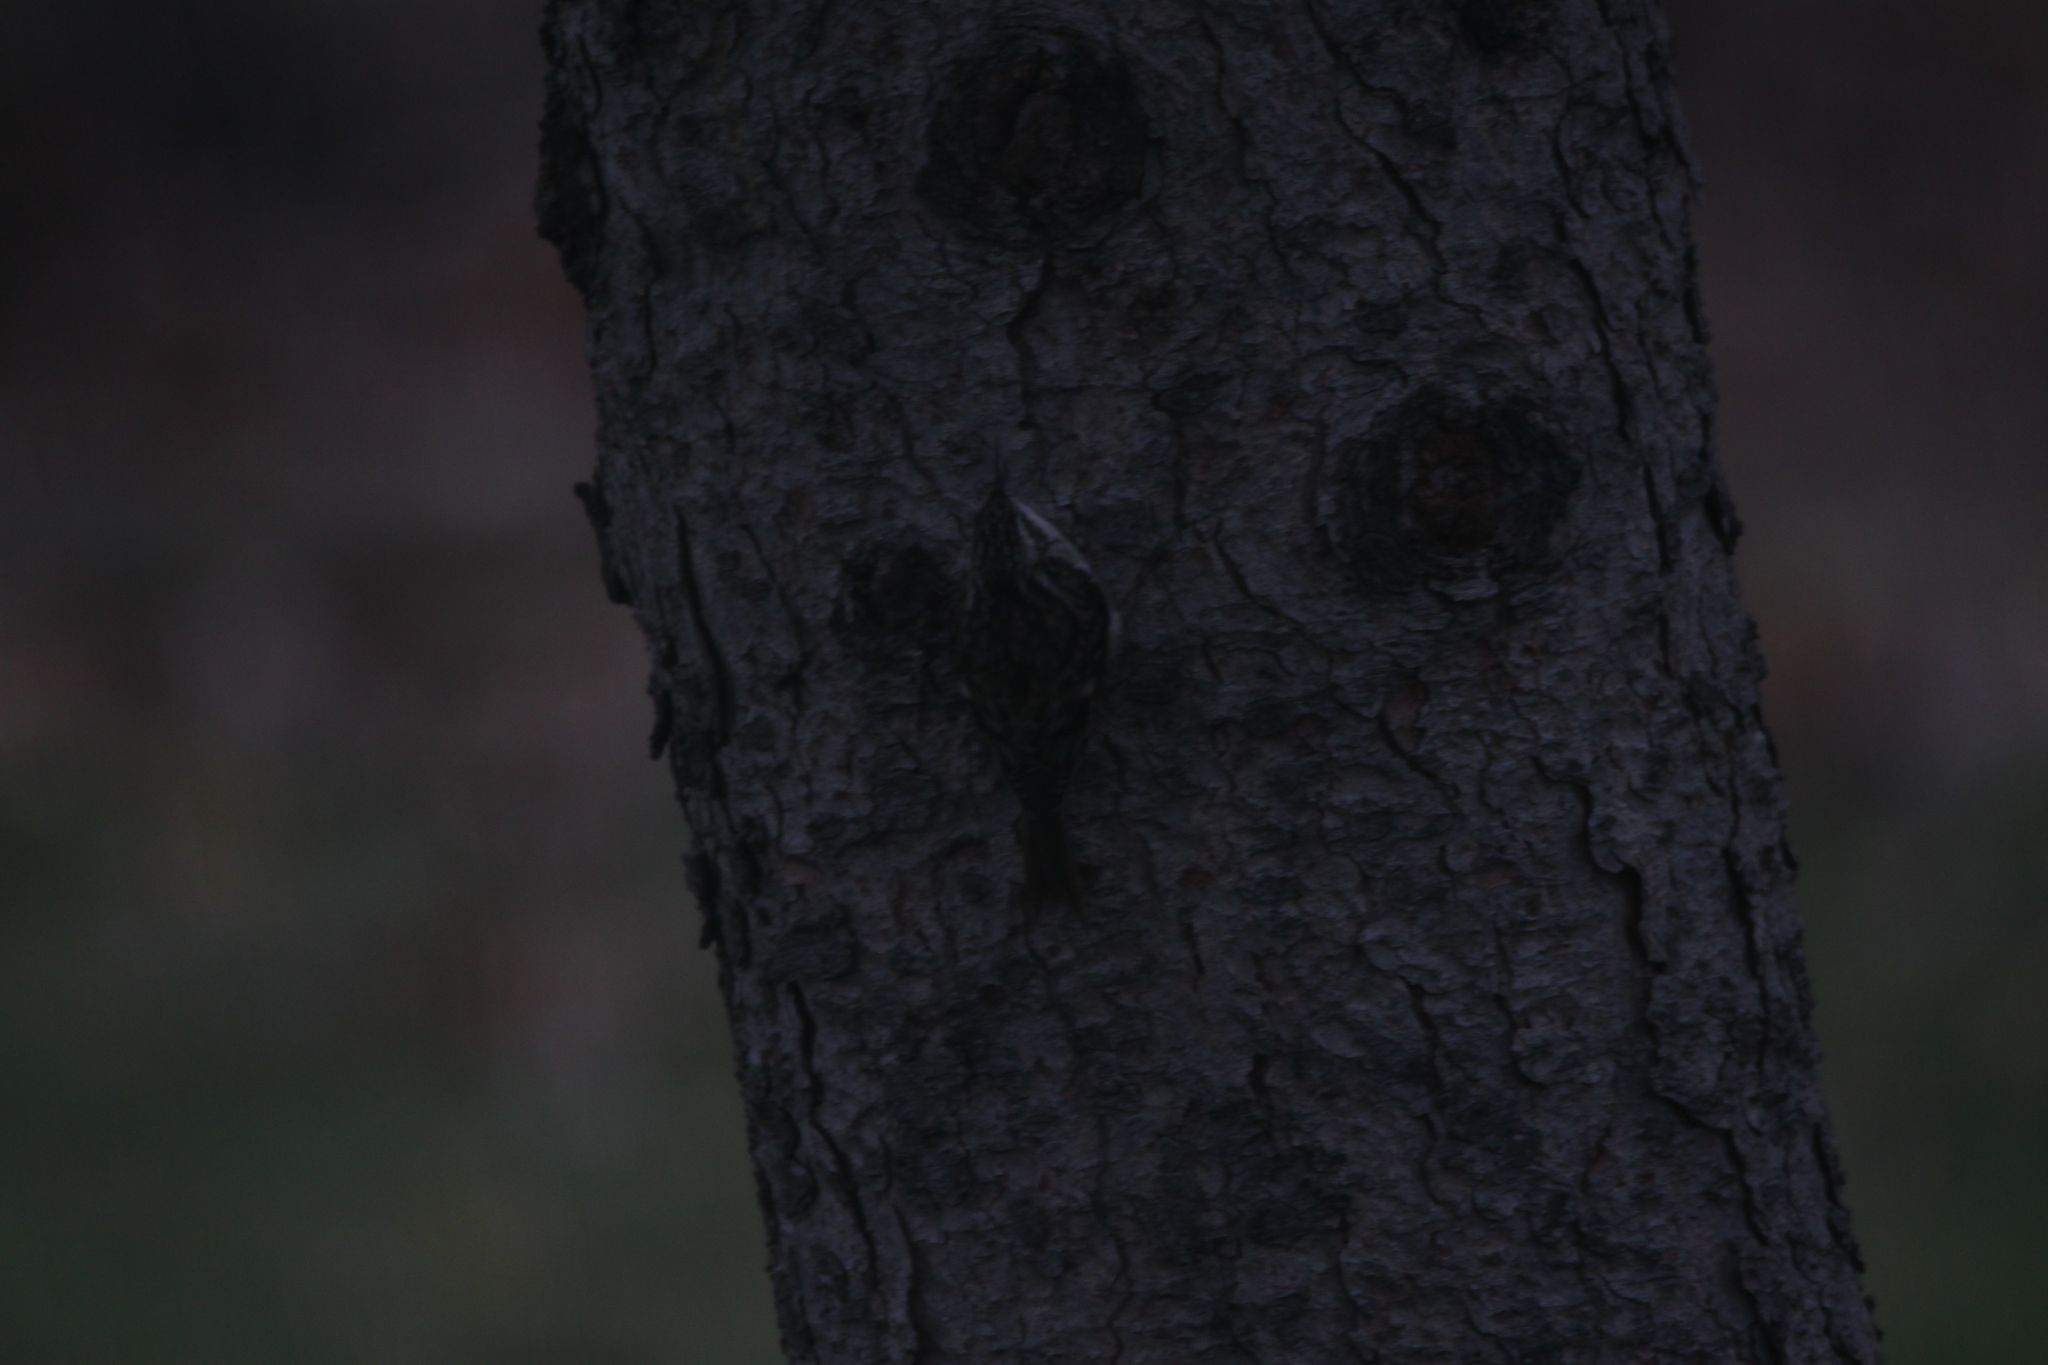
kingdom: Animalia
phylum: Chordata
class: Aves
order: Passeriformes
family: Certhiidae
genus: Certhia
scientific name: Certhia americana
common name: Brown creeper
